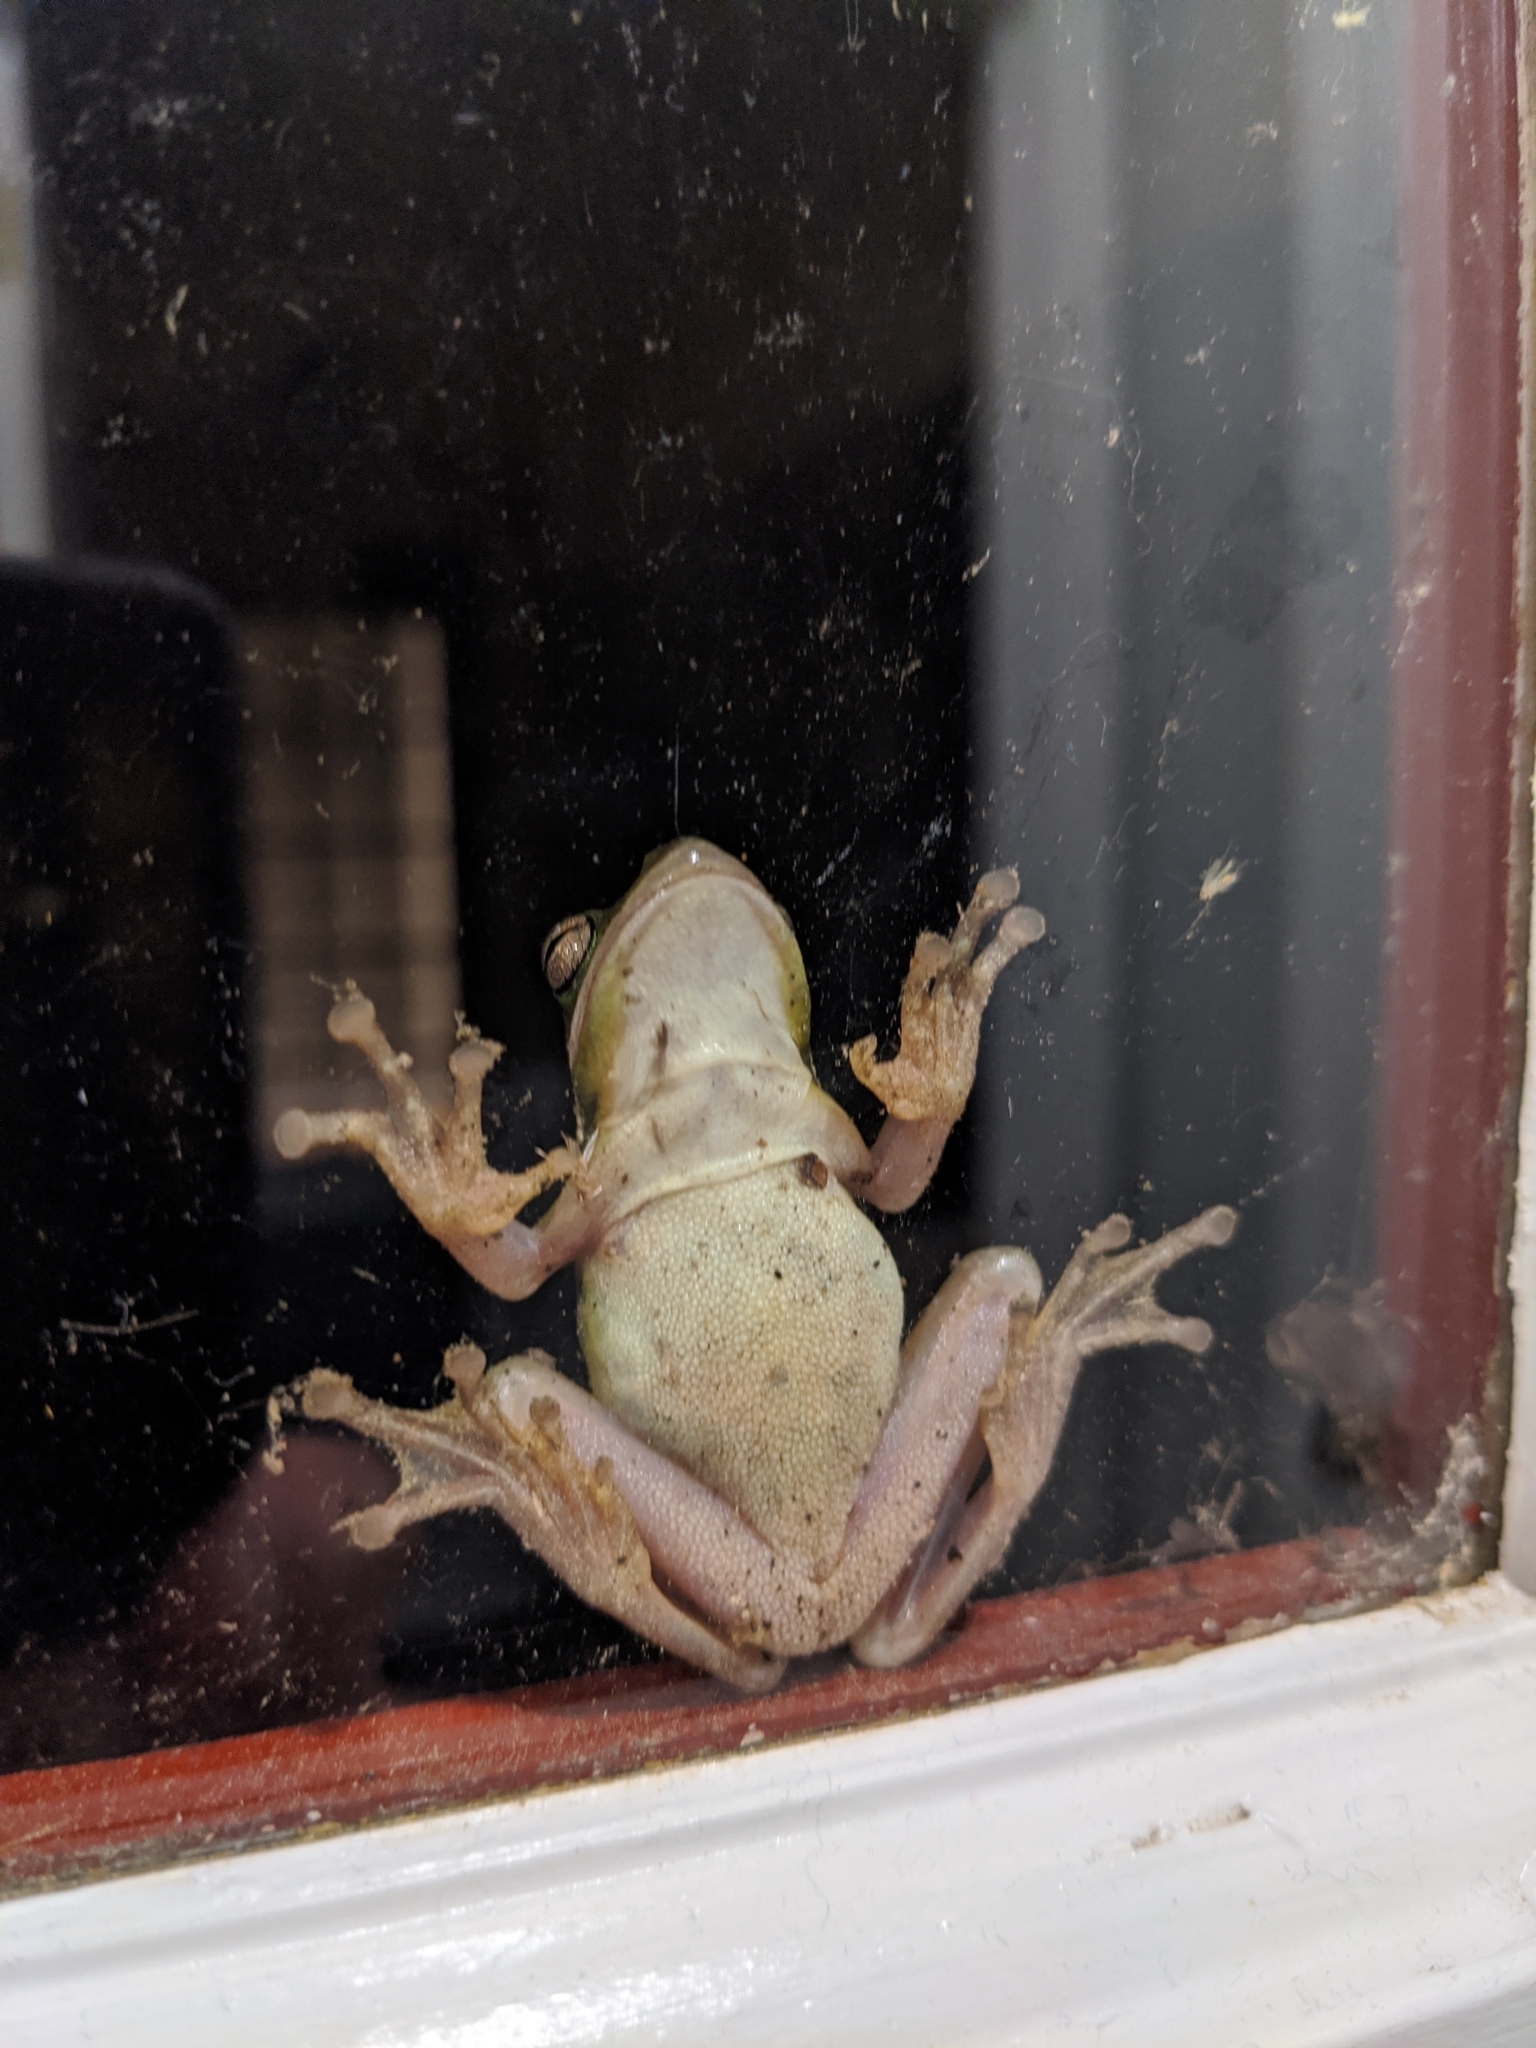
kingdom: Animalia
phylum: Chordata
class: Amphibia
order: Anura
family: Hylidae
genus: Dryophytes
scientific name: Dryophytes cinereus
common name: Green treefrog
